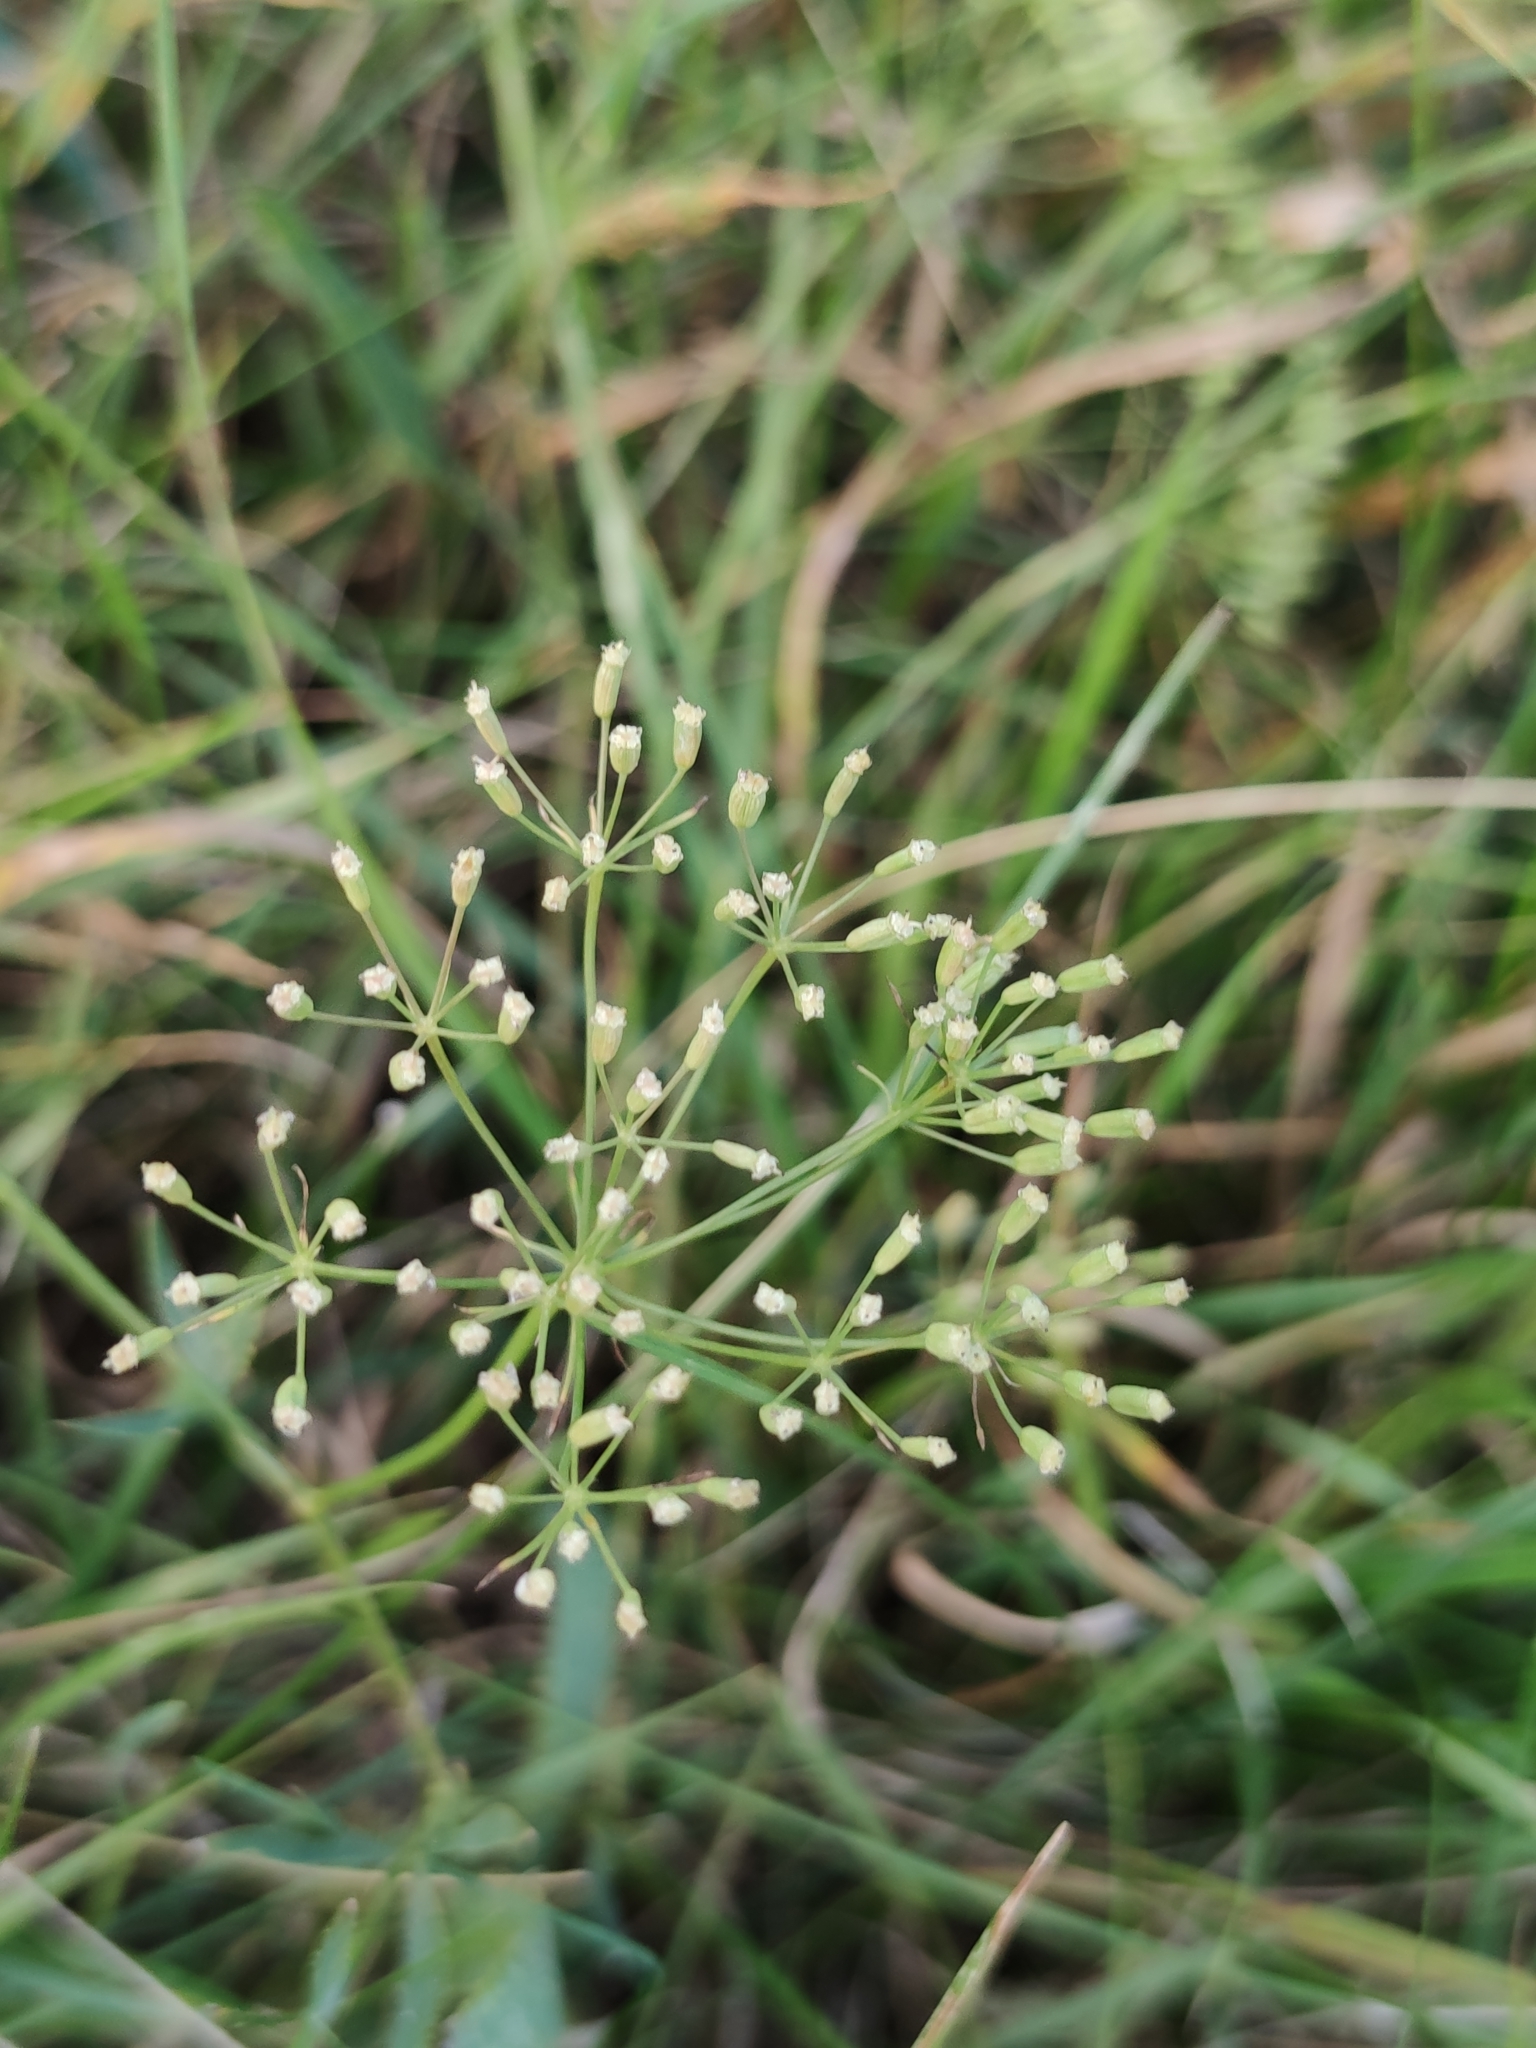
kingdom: Plantae
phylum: Tracheophyta
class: Magnoliopsida
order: Apiales
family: Apiaceae
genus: Falcaria
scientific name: Falcaria vulgaris
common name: Longleaf
